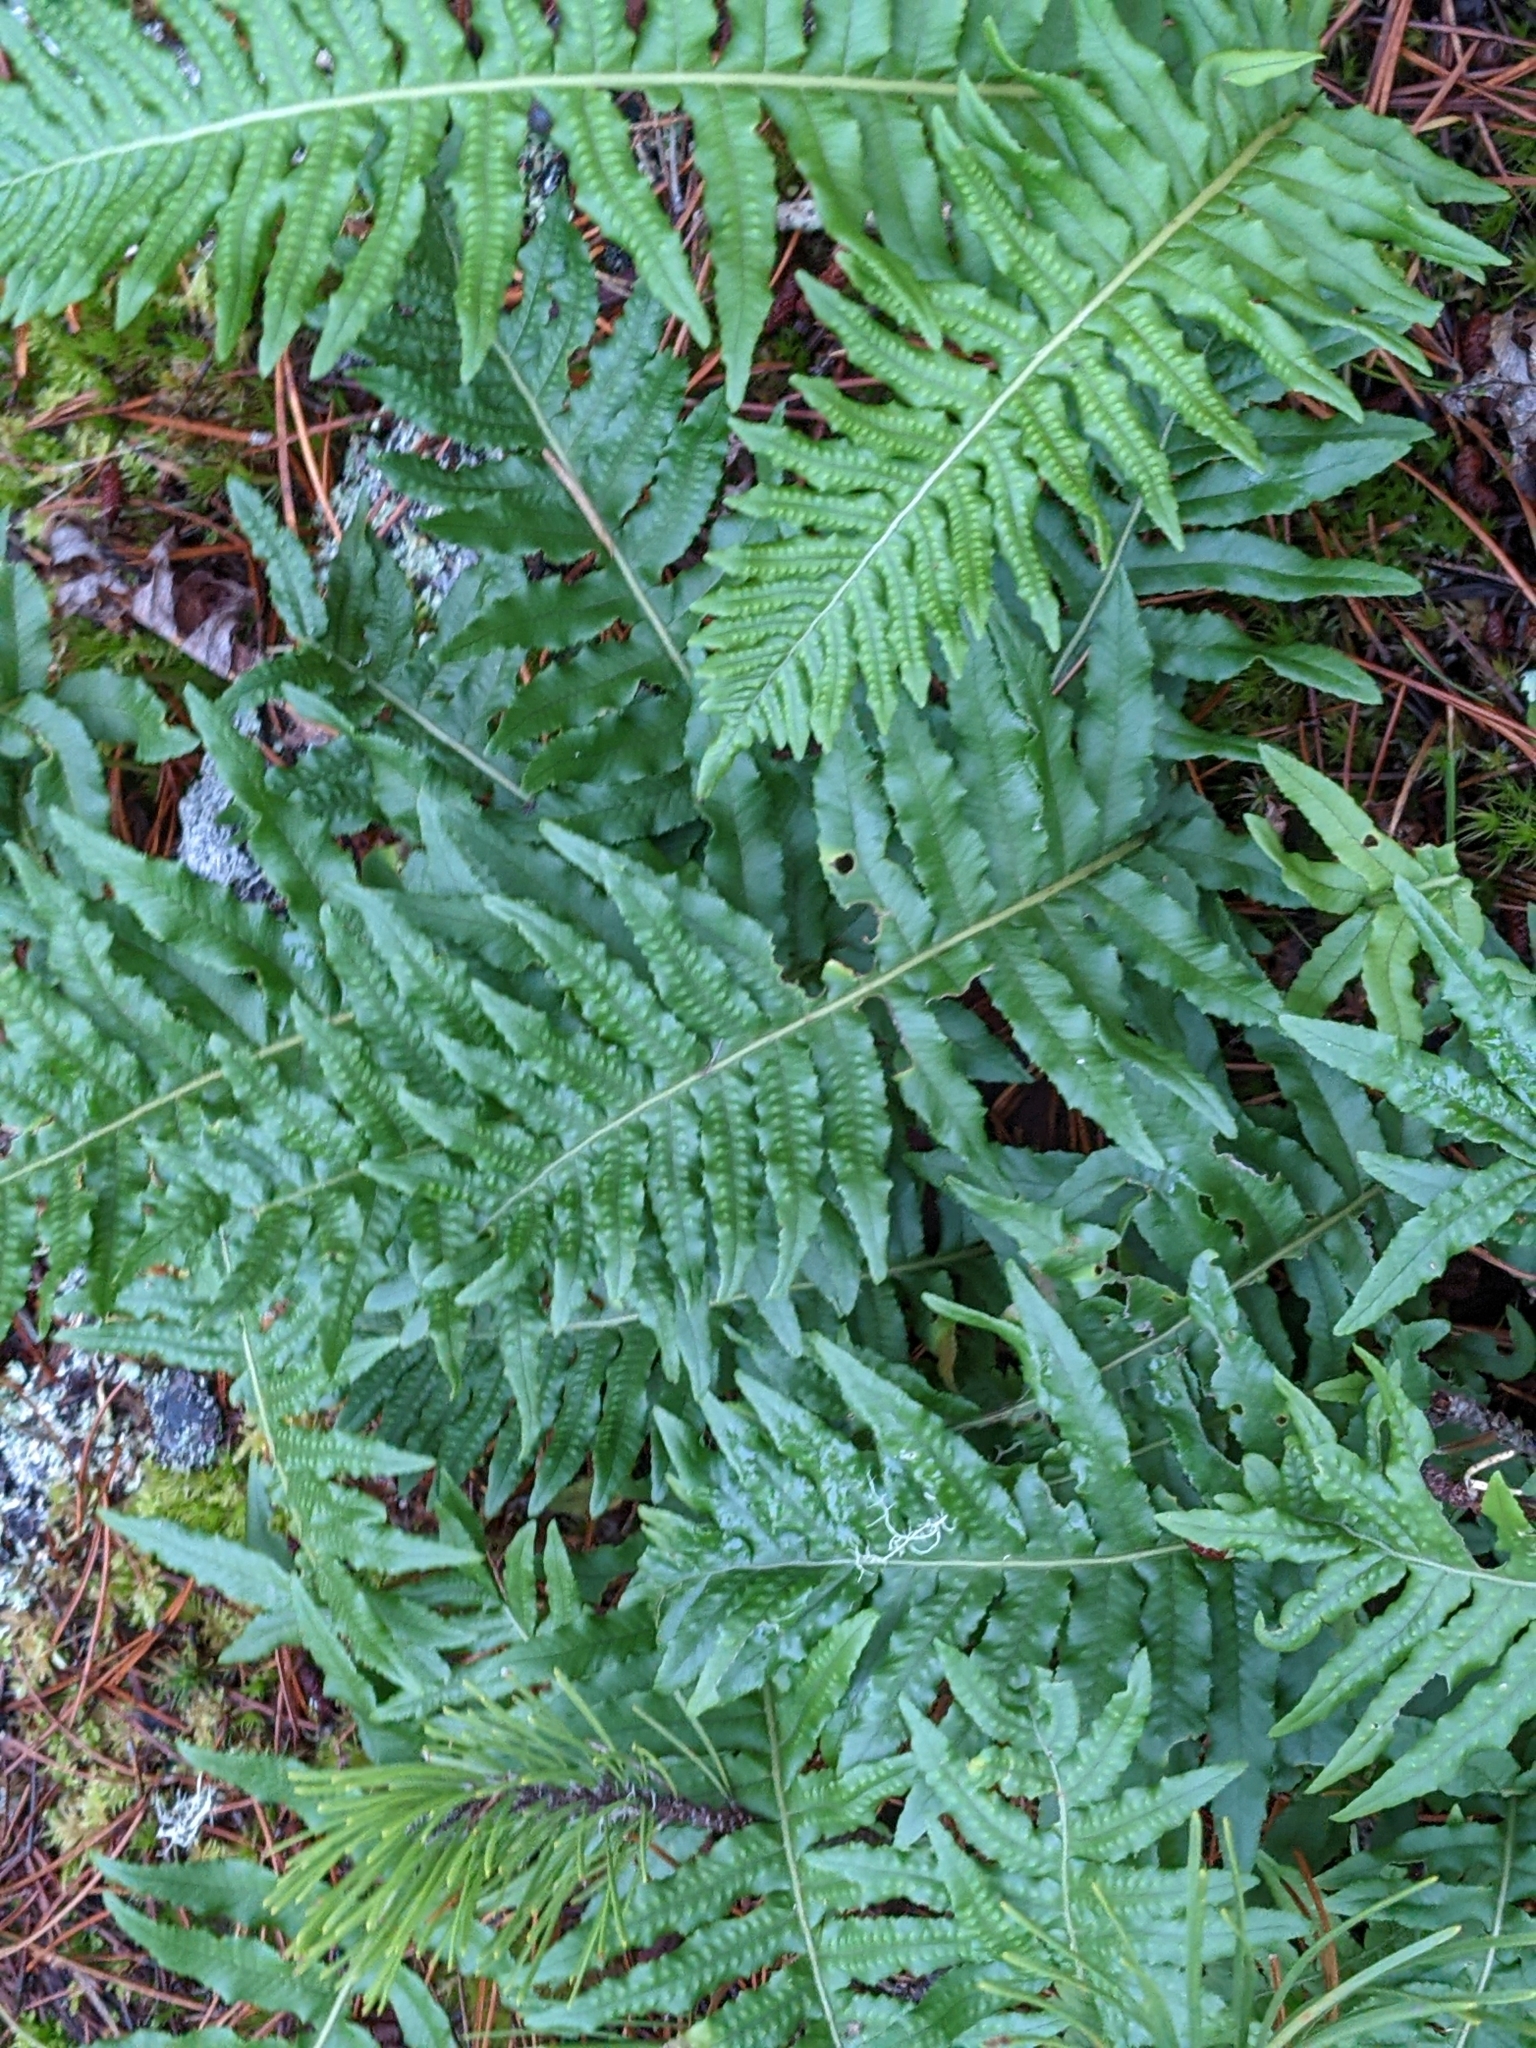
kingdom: Plantae
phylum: Tracheophyta
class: Polypodiopsida
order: Polypodiales
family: Polypodiaceae
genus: Polypodium
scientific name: Polypodium glycyrrhiza
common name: Licorice fern
